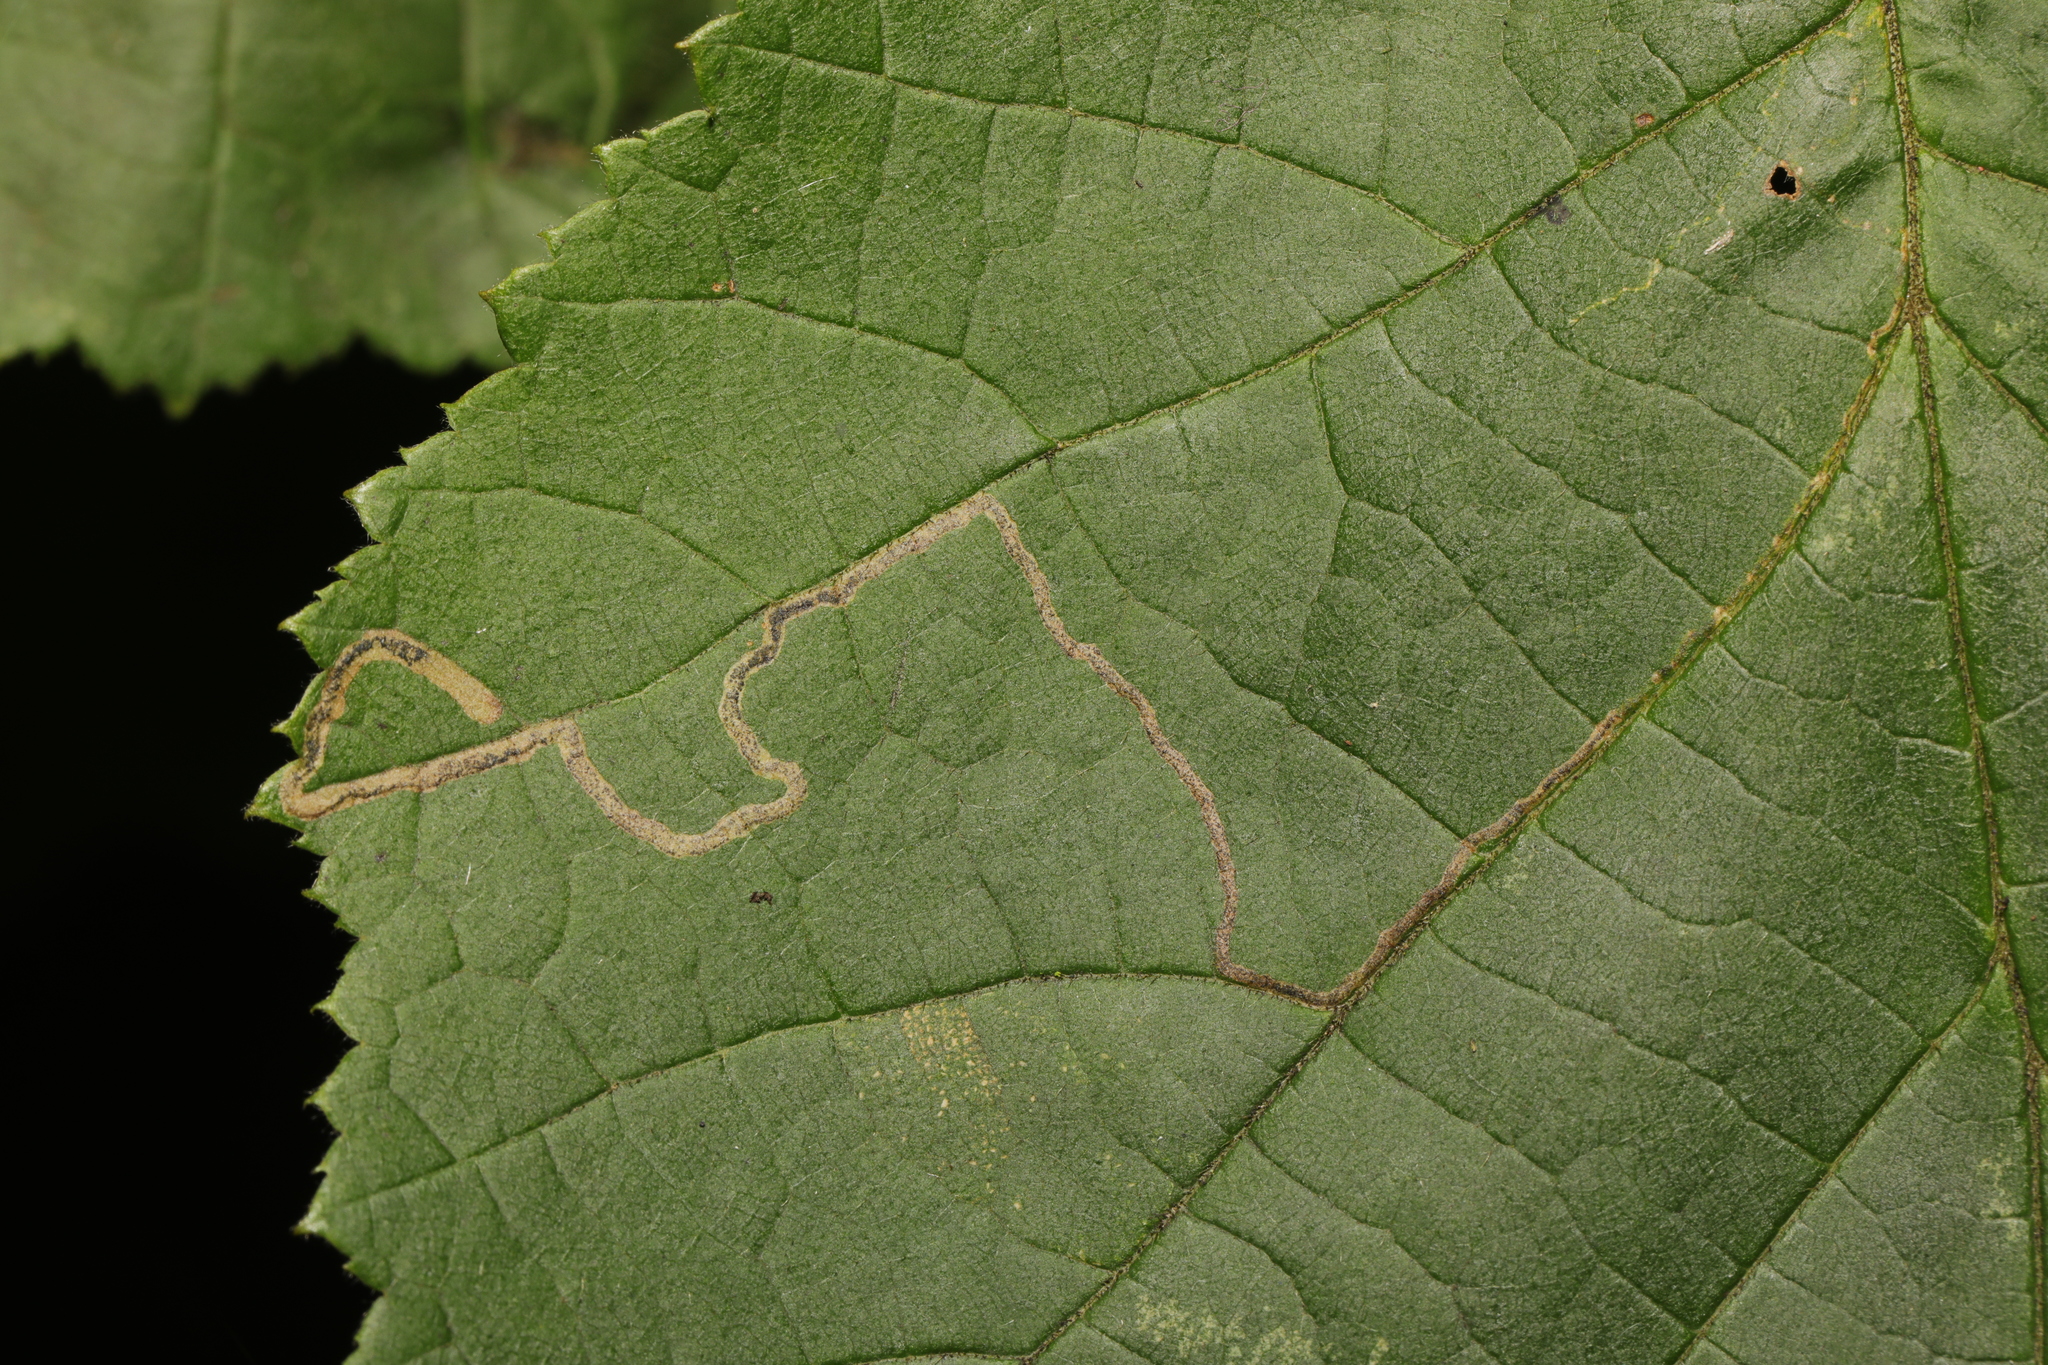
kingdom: Animalia
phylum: Arthropoda
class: Insecta
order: Lepidoptera
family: Nepticulidae
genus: Stigmella
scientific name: Stigmella microtheriella
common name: Nut-tree pigmy
